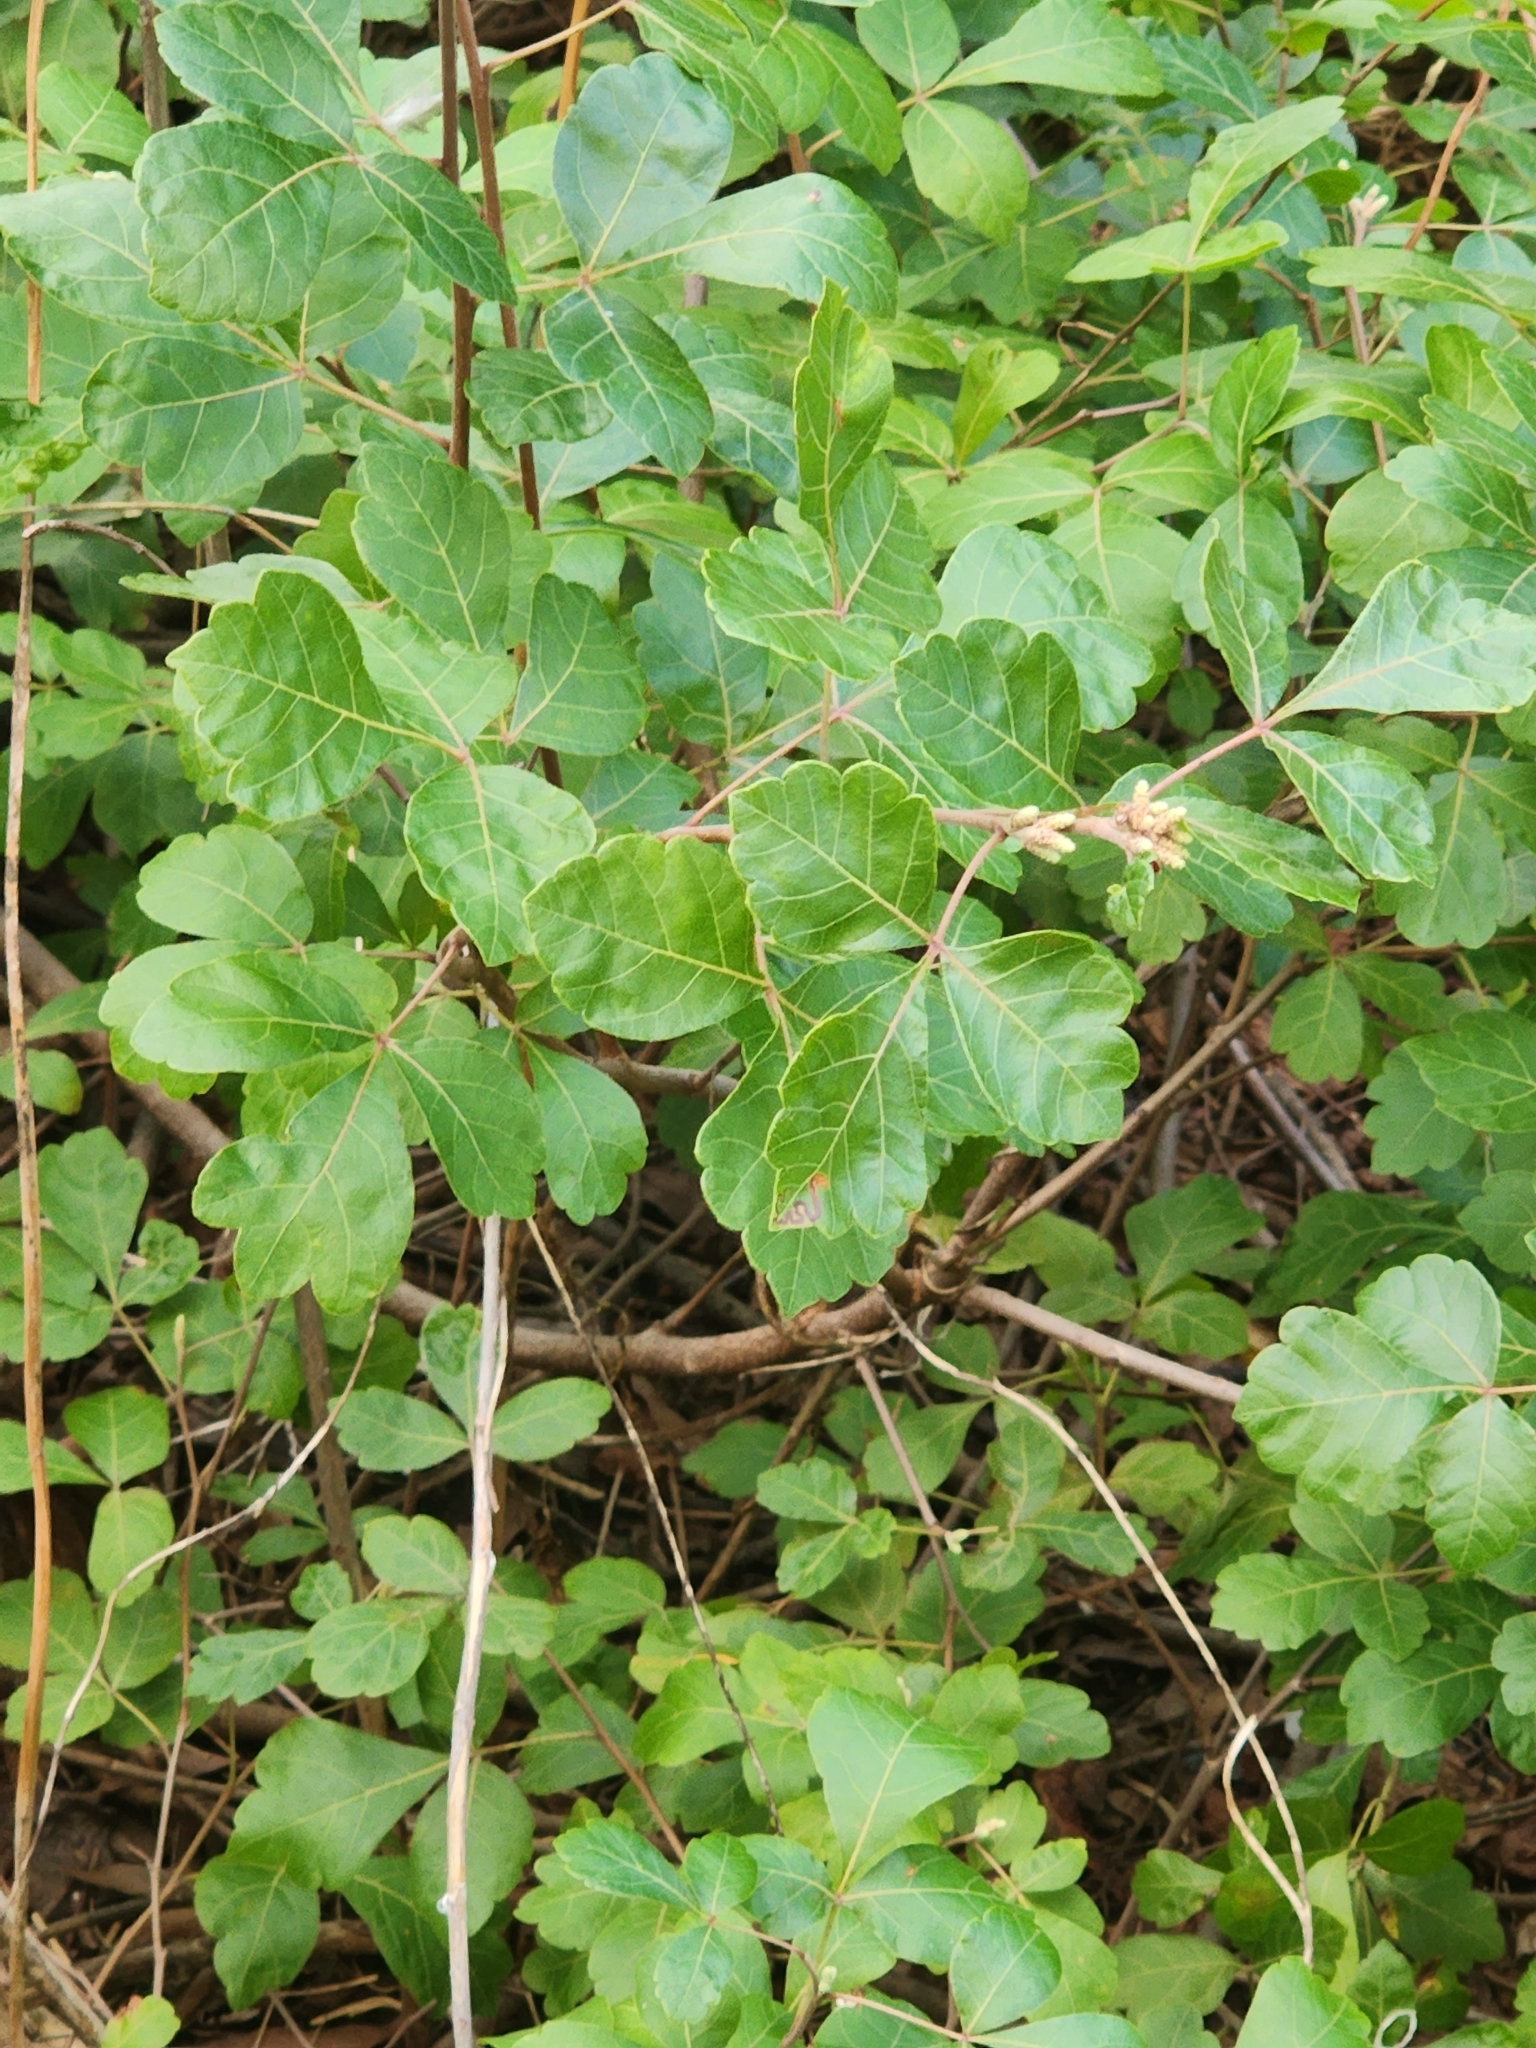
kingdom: Plantae
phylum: Tracheophyta
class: Magnoliopsida
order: Sapindales
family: Anacardiaceae
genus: Rhus
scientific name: Rhus aromatica
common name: Aromatic sumac
